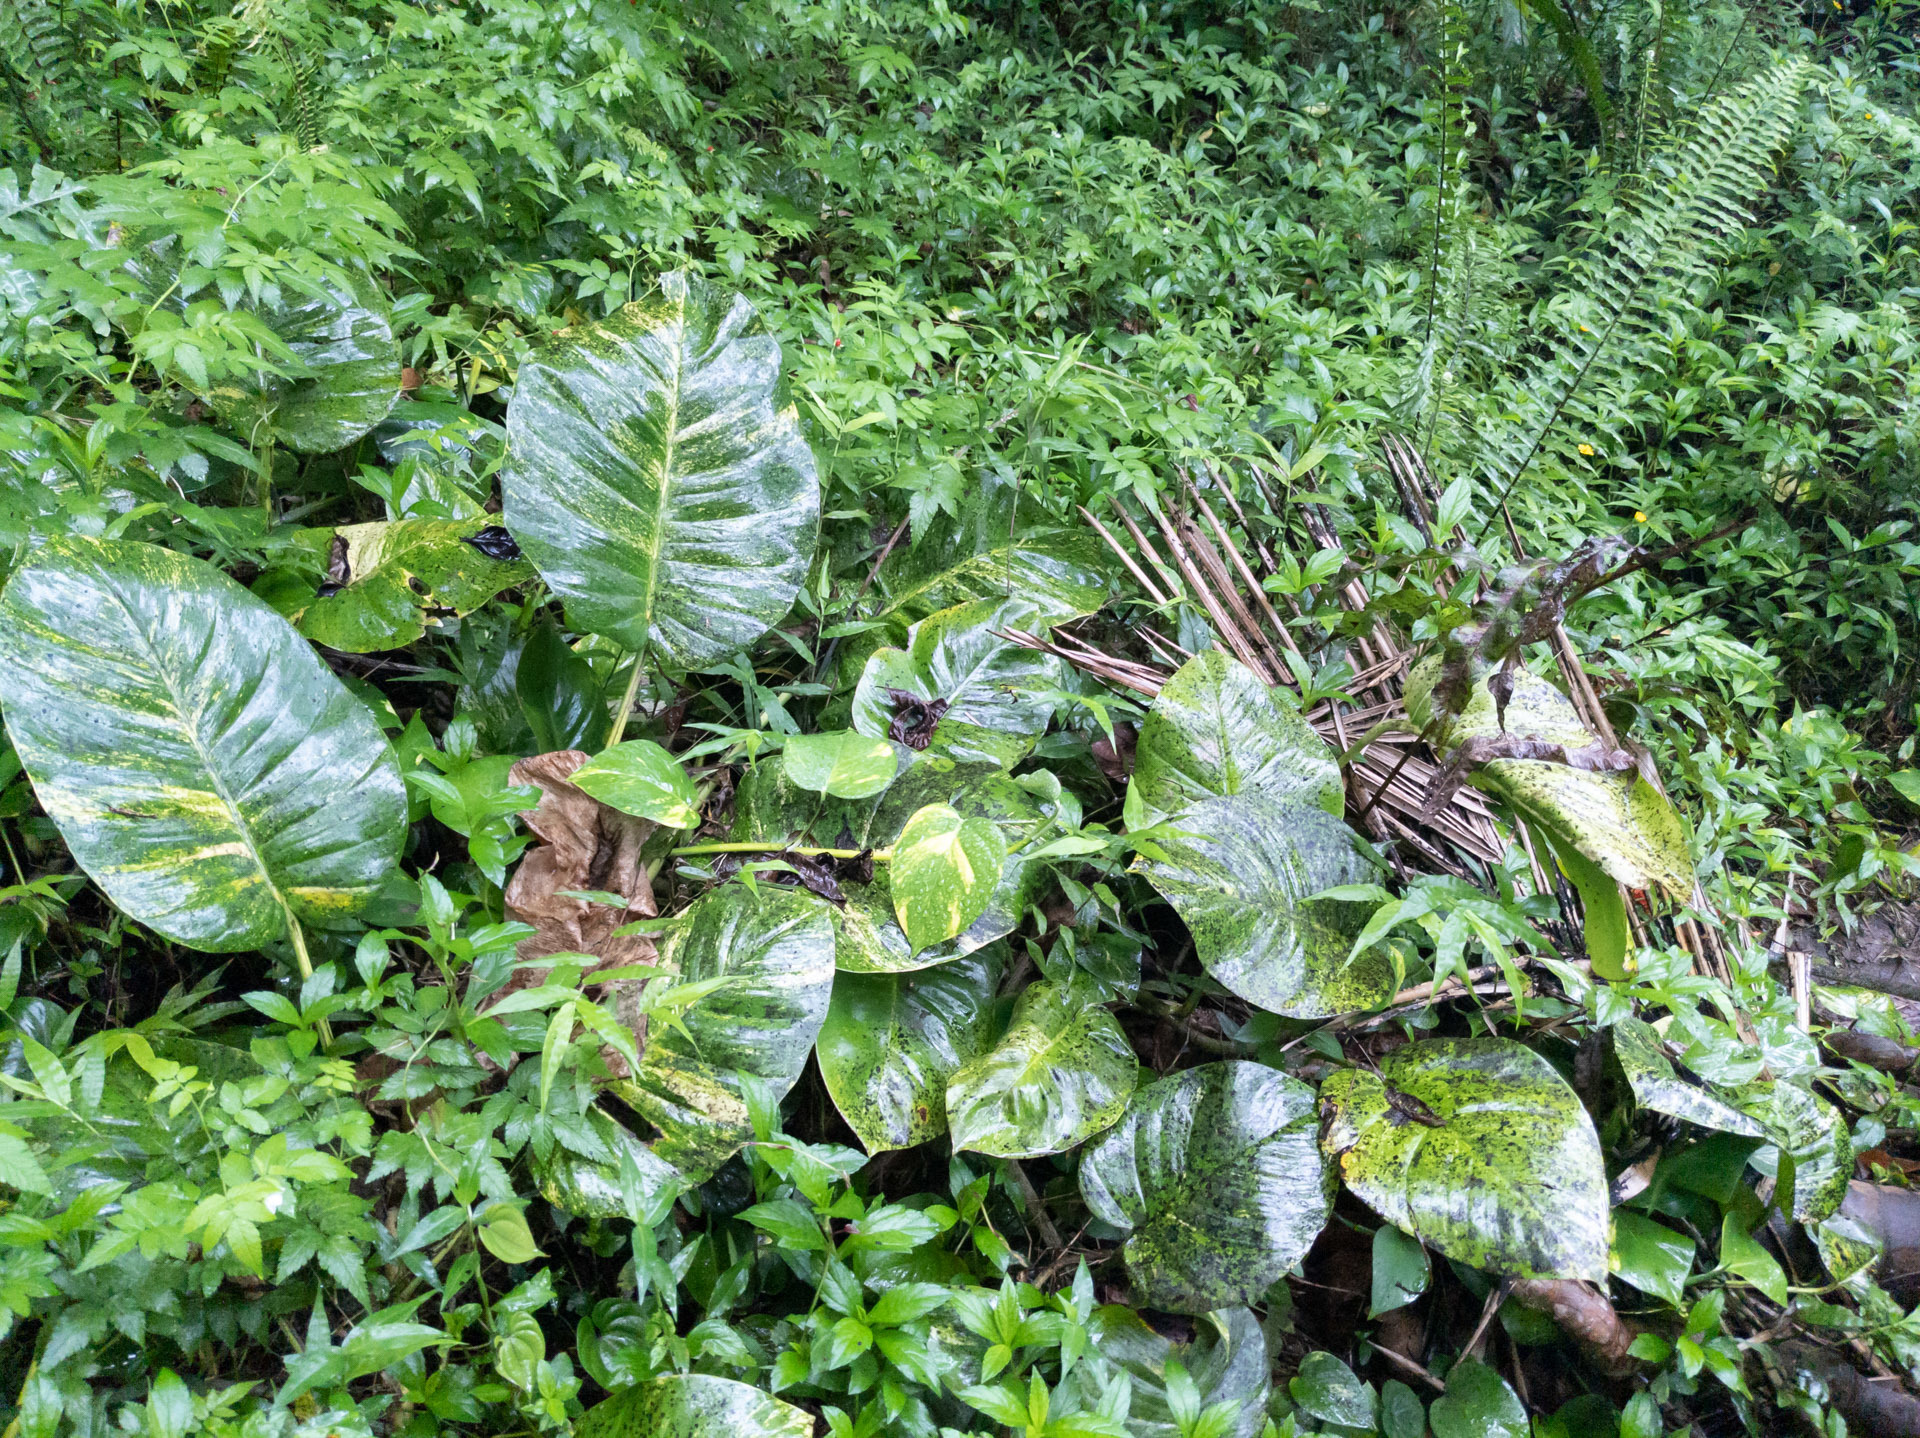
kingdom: Plantae
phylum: Tracheophyta
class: Liliopsida
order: Alismatales
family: Araceae
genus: Epipremnum
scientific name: Epipremnum aureum
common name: Golden hunter's-robe
